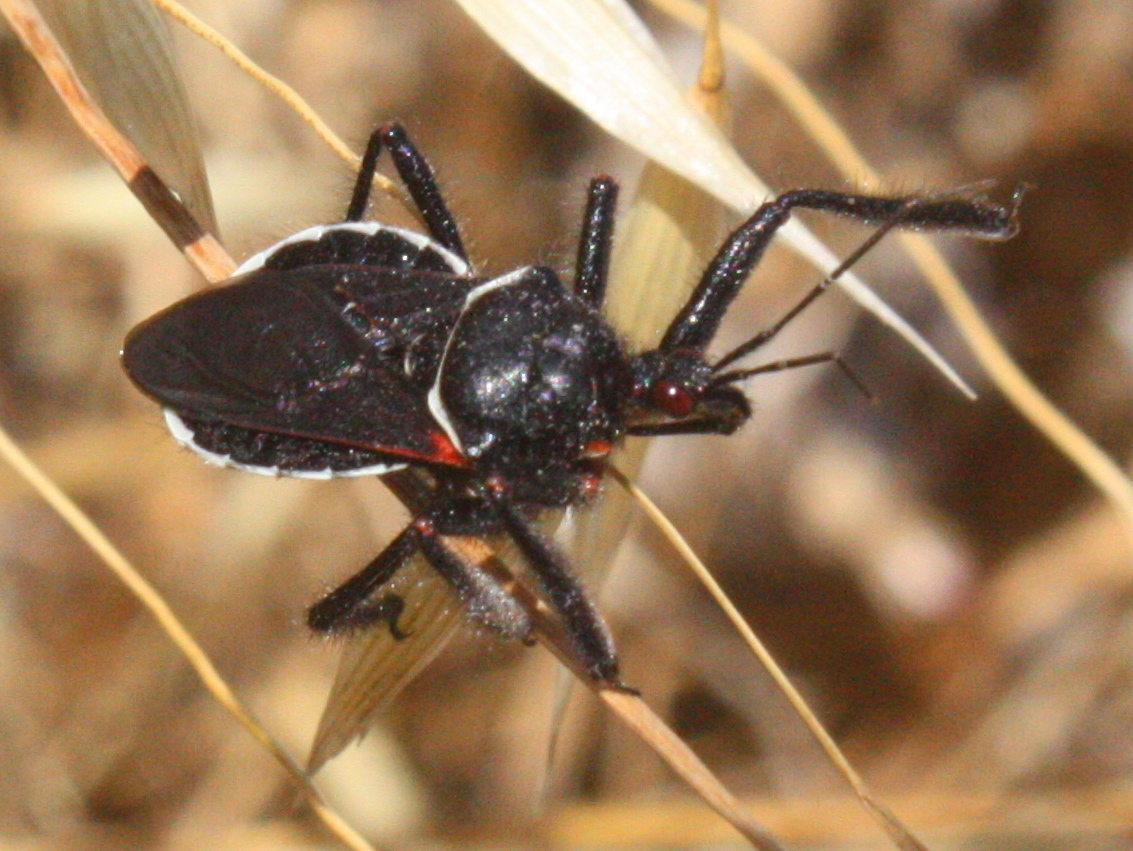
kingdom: Animalia
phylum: Arthropoda
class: Insecta
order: Hemiptera
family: Reduviidae
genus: Apiomerus
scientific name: Apiomerus californicus
